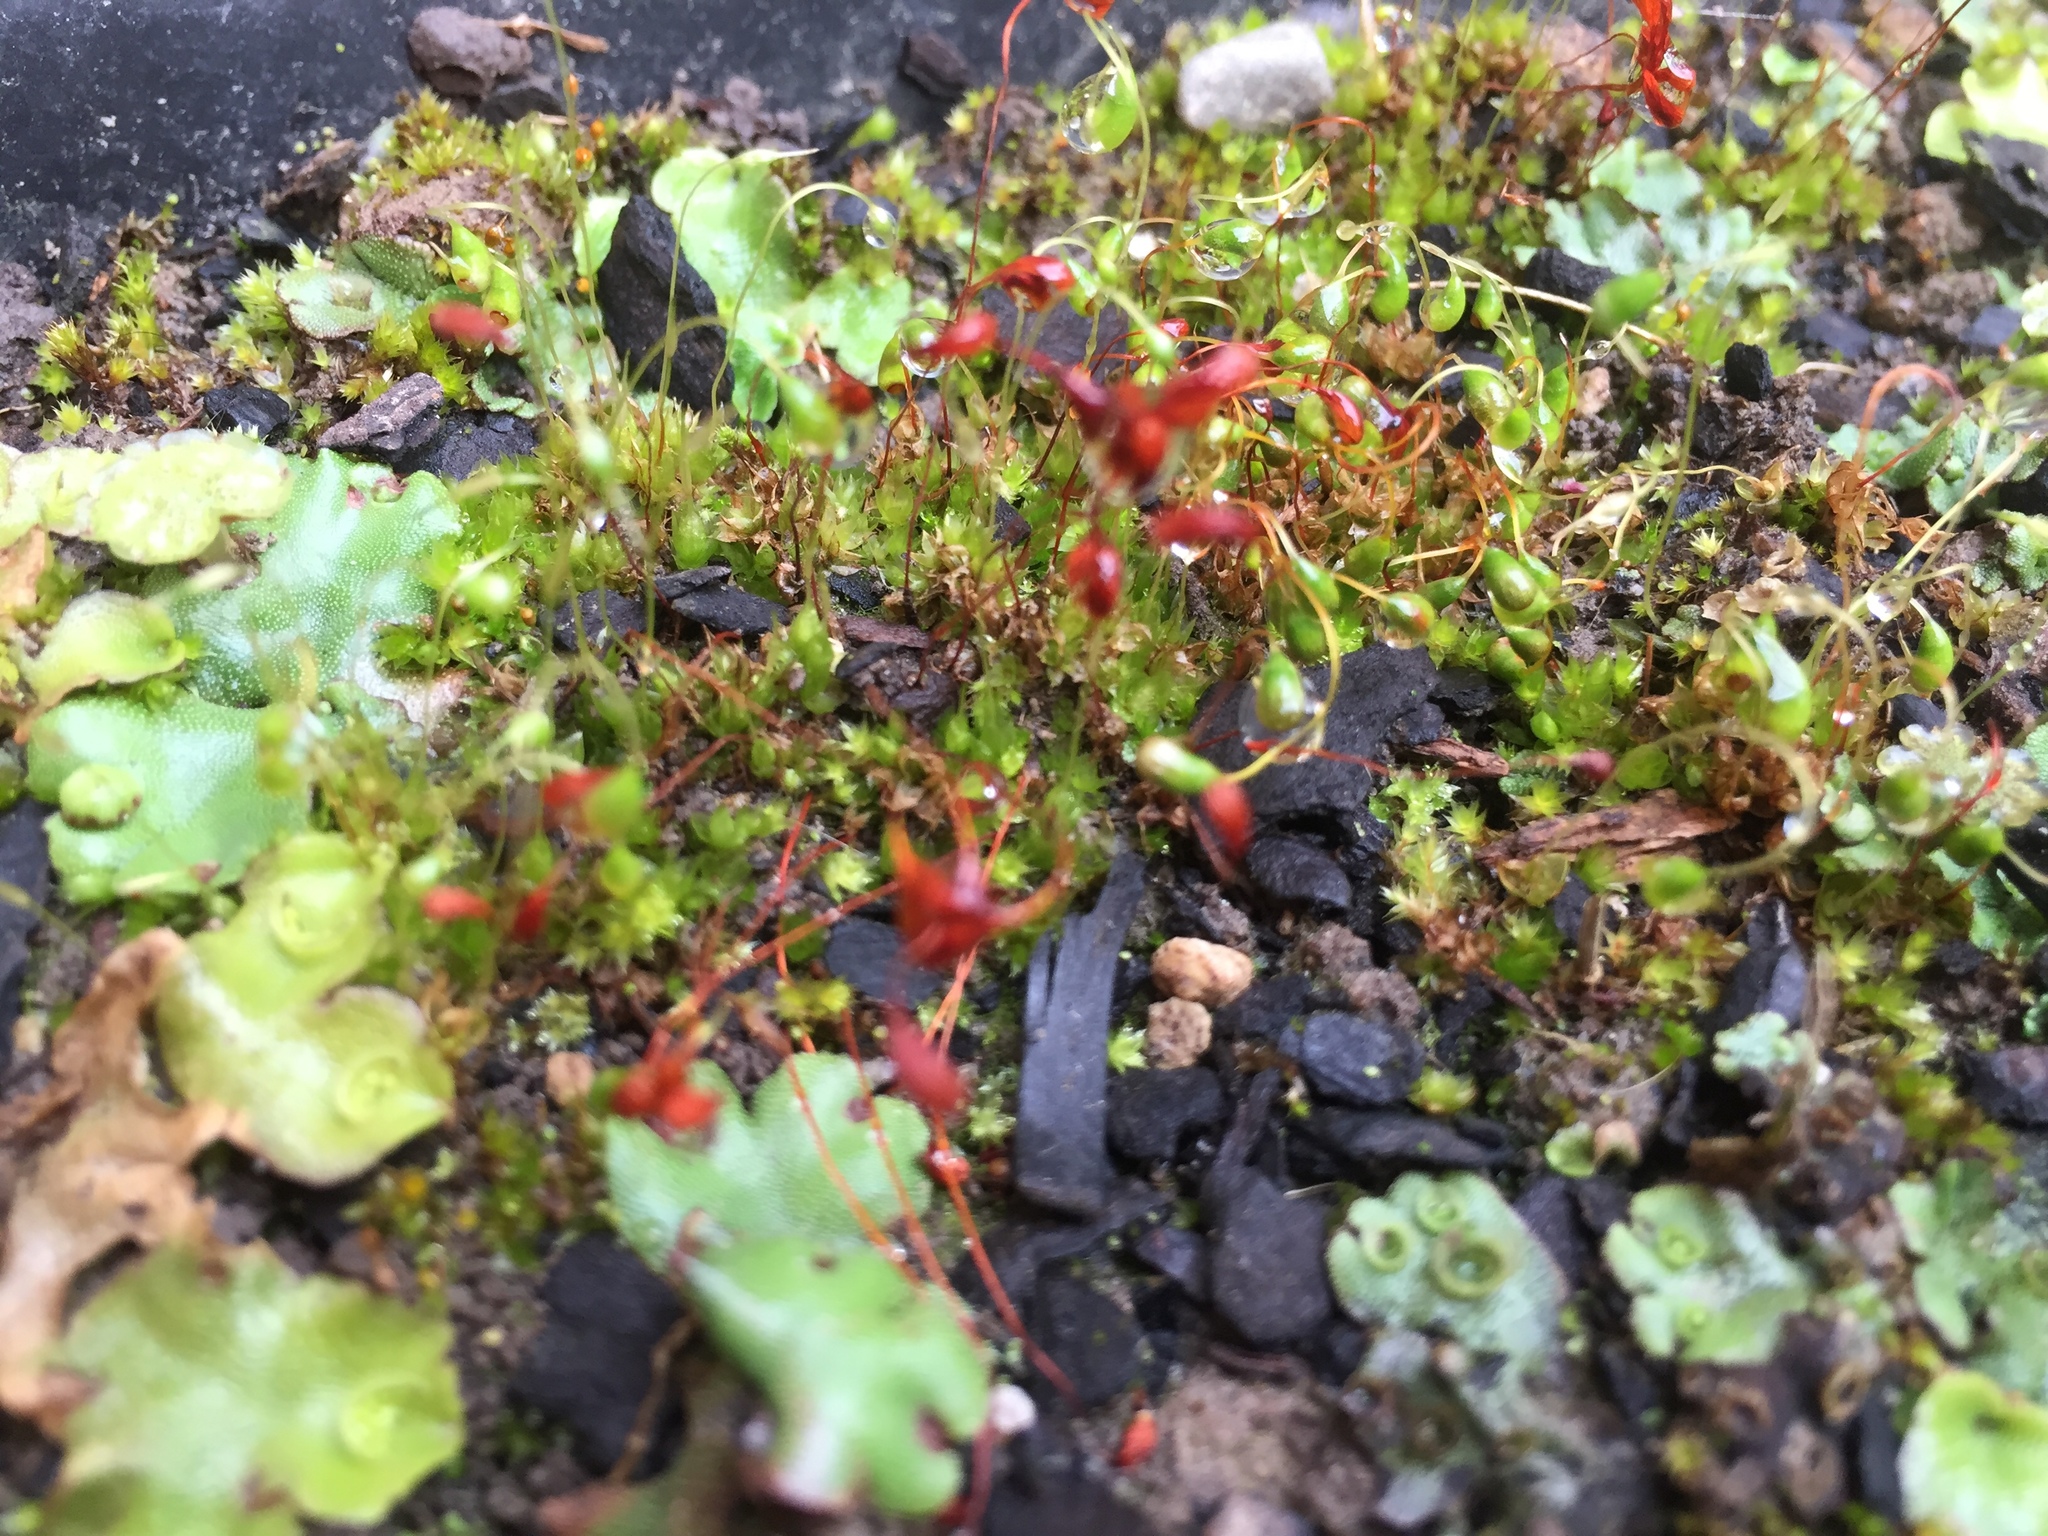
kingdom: Plantae
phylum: Bryophyta
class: Bryopsida
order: Funariales
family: Funariaceae
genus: Funaria
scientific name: Funaria hygrometrica
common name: Common cord moss
